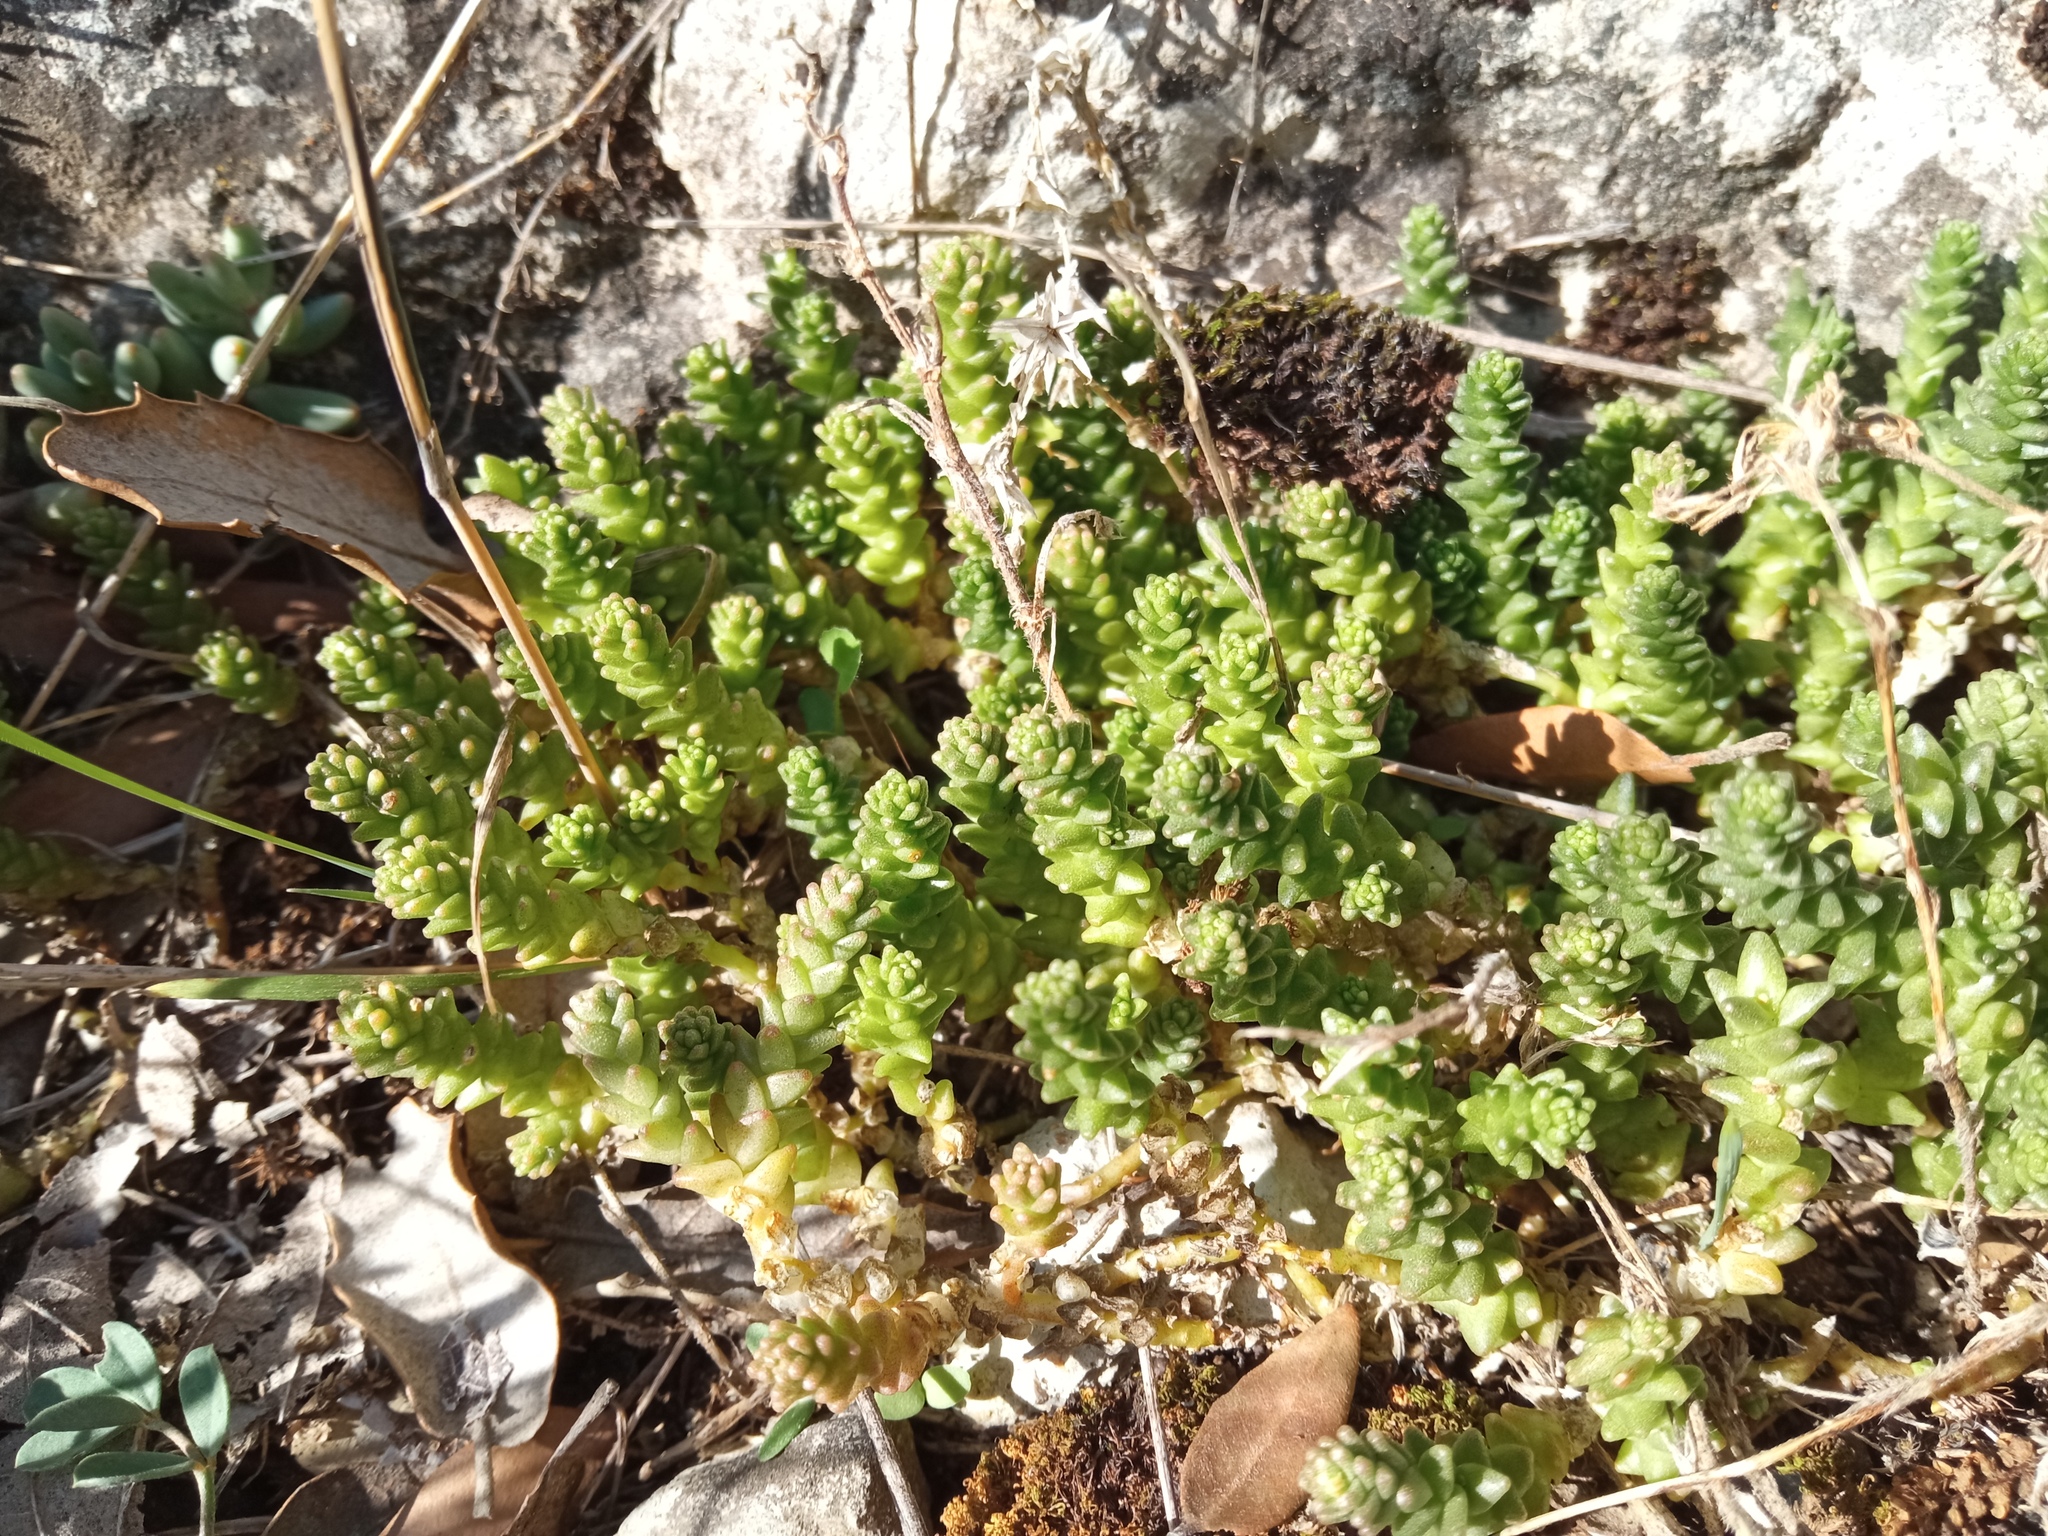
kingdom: Plantae
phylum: Tracheophyta
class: Magnoliopsida
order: Saxifragales
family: Crassulaceae
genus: Sedum
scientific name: Sedum acre
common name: Biting stonecrop
